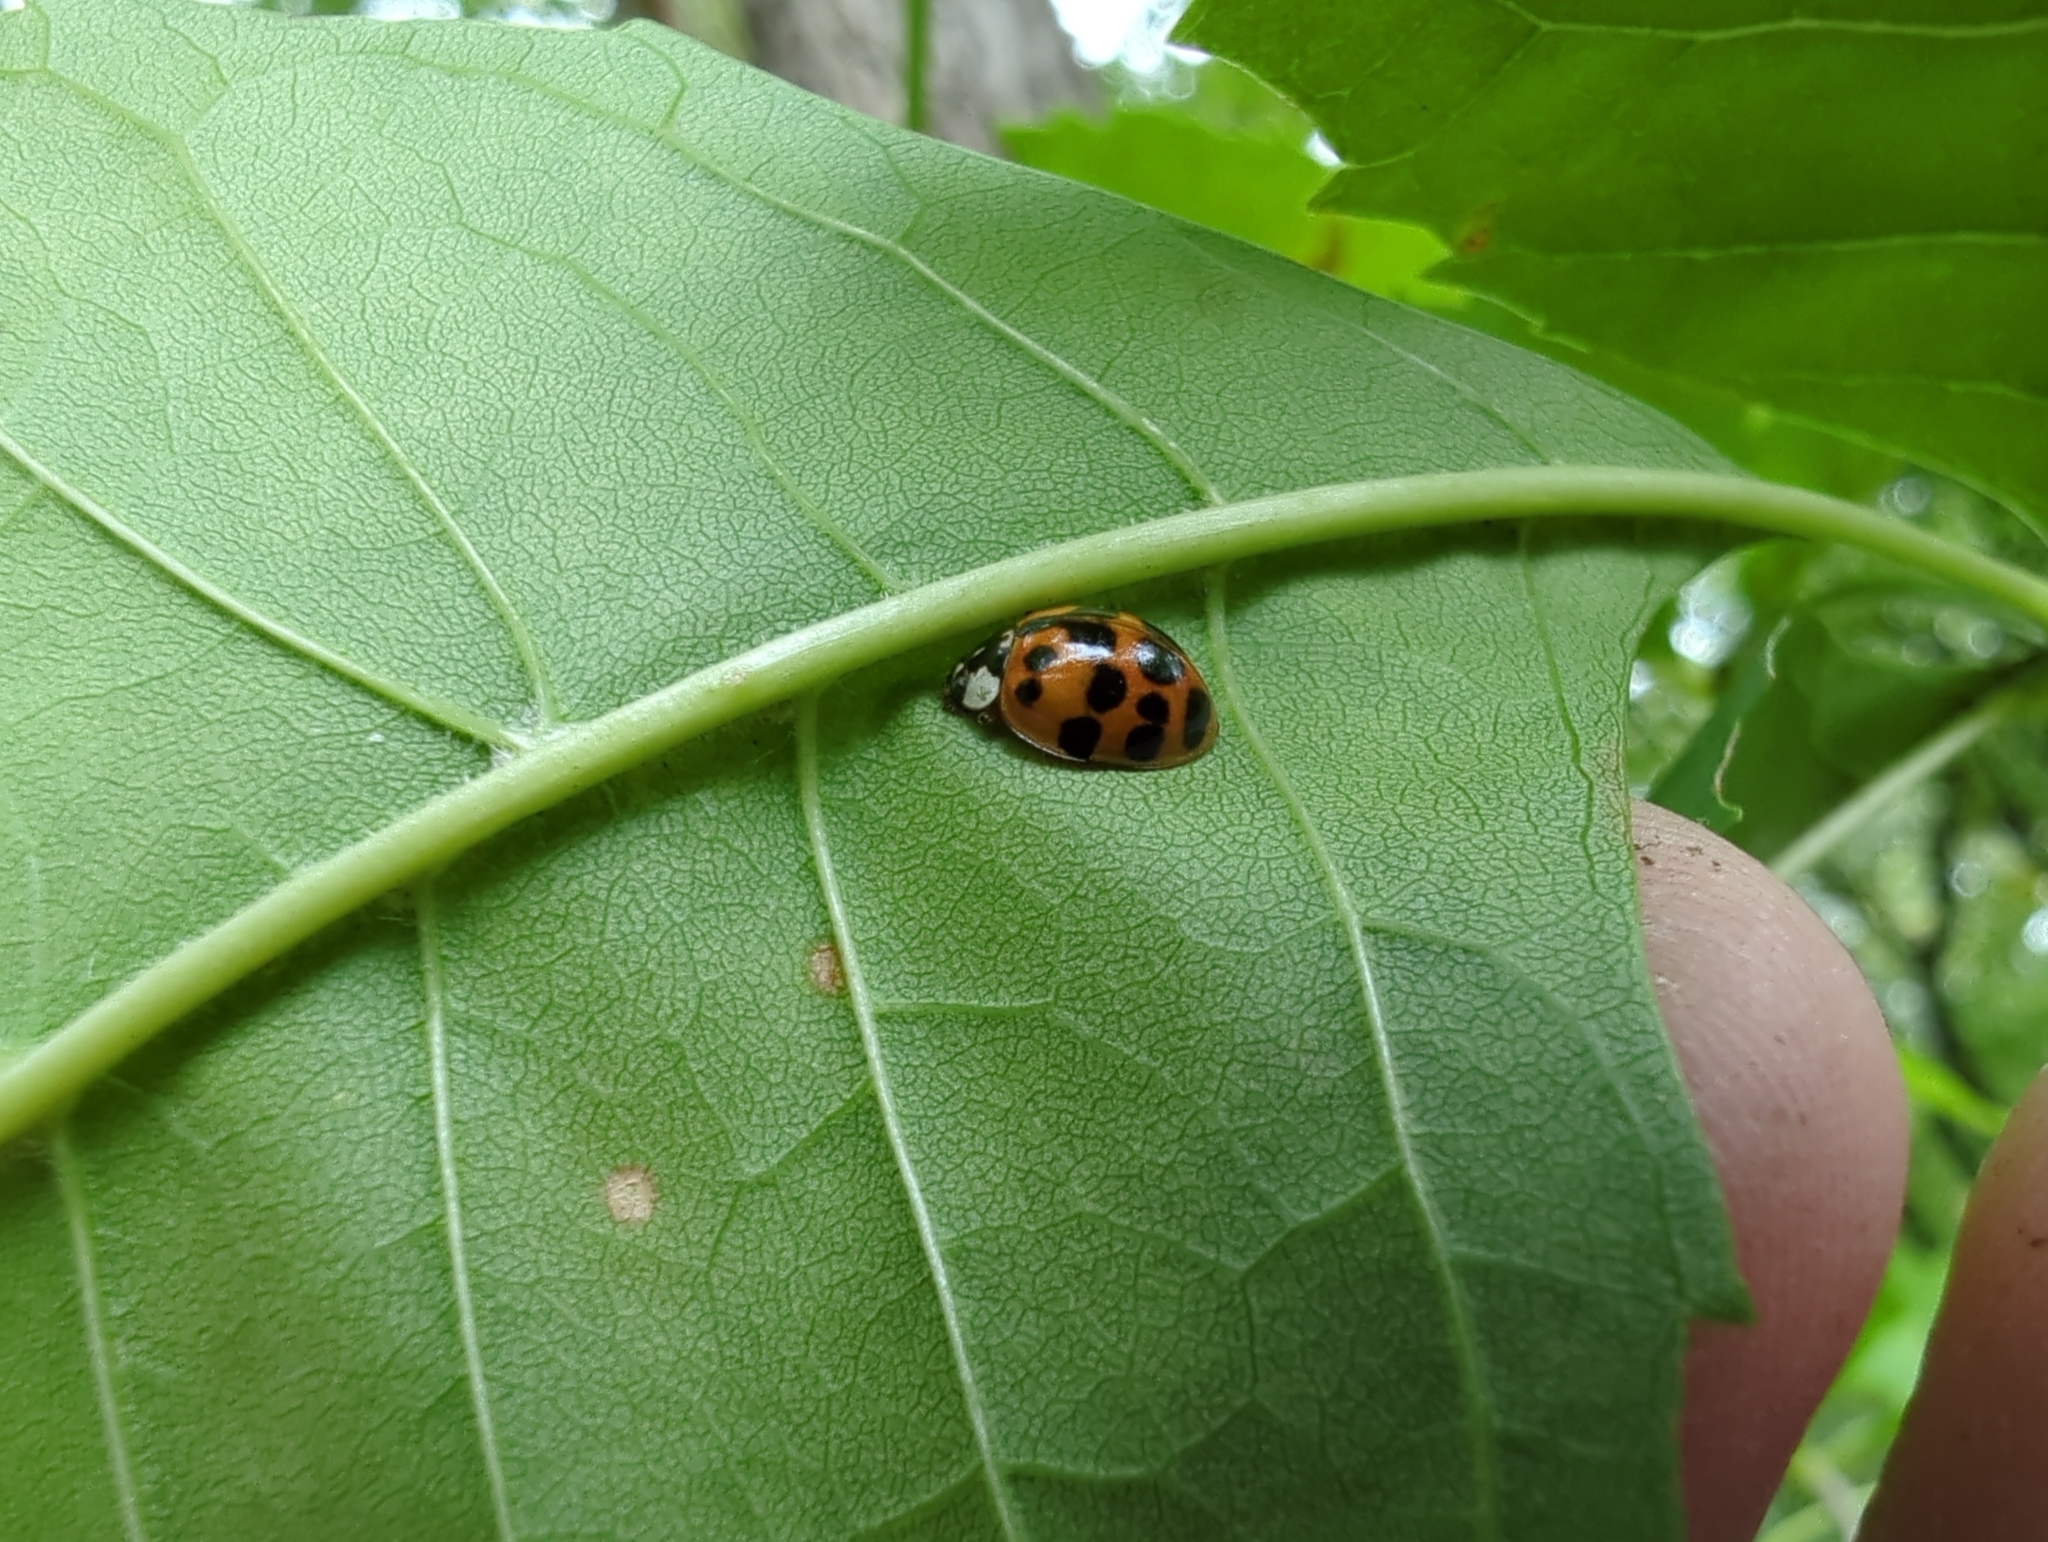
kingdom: Animalia
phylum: Arthropoda
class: Insecta
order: Coleoptera
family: Coccinellidae
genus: Harmonia
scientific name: Harmonia axyridis
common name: Harlequin ladybird
